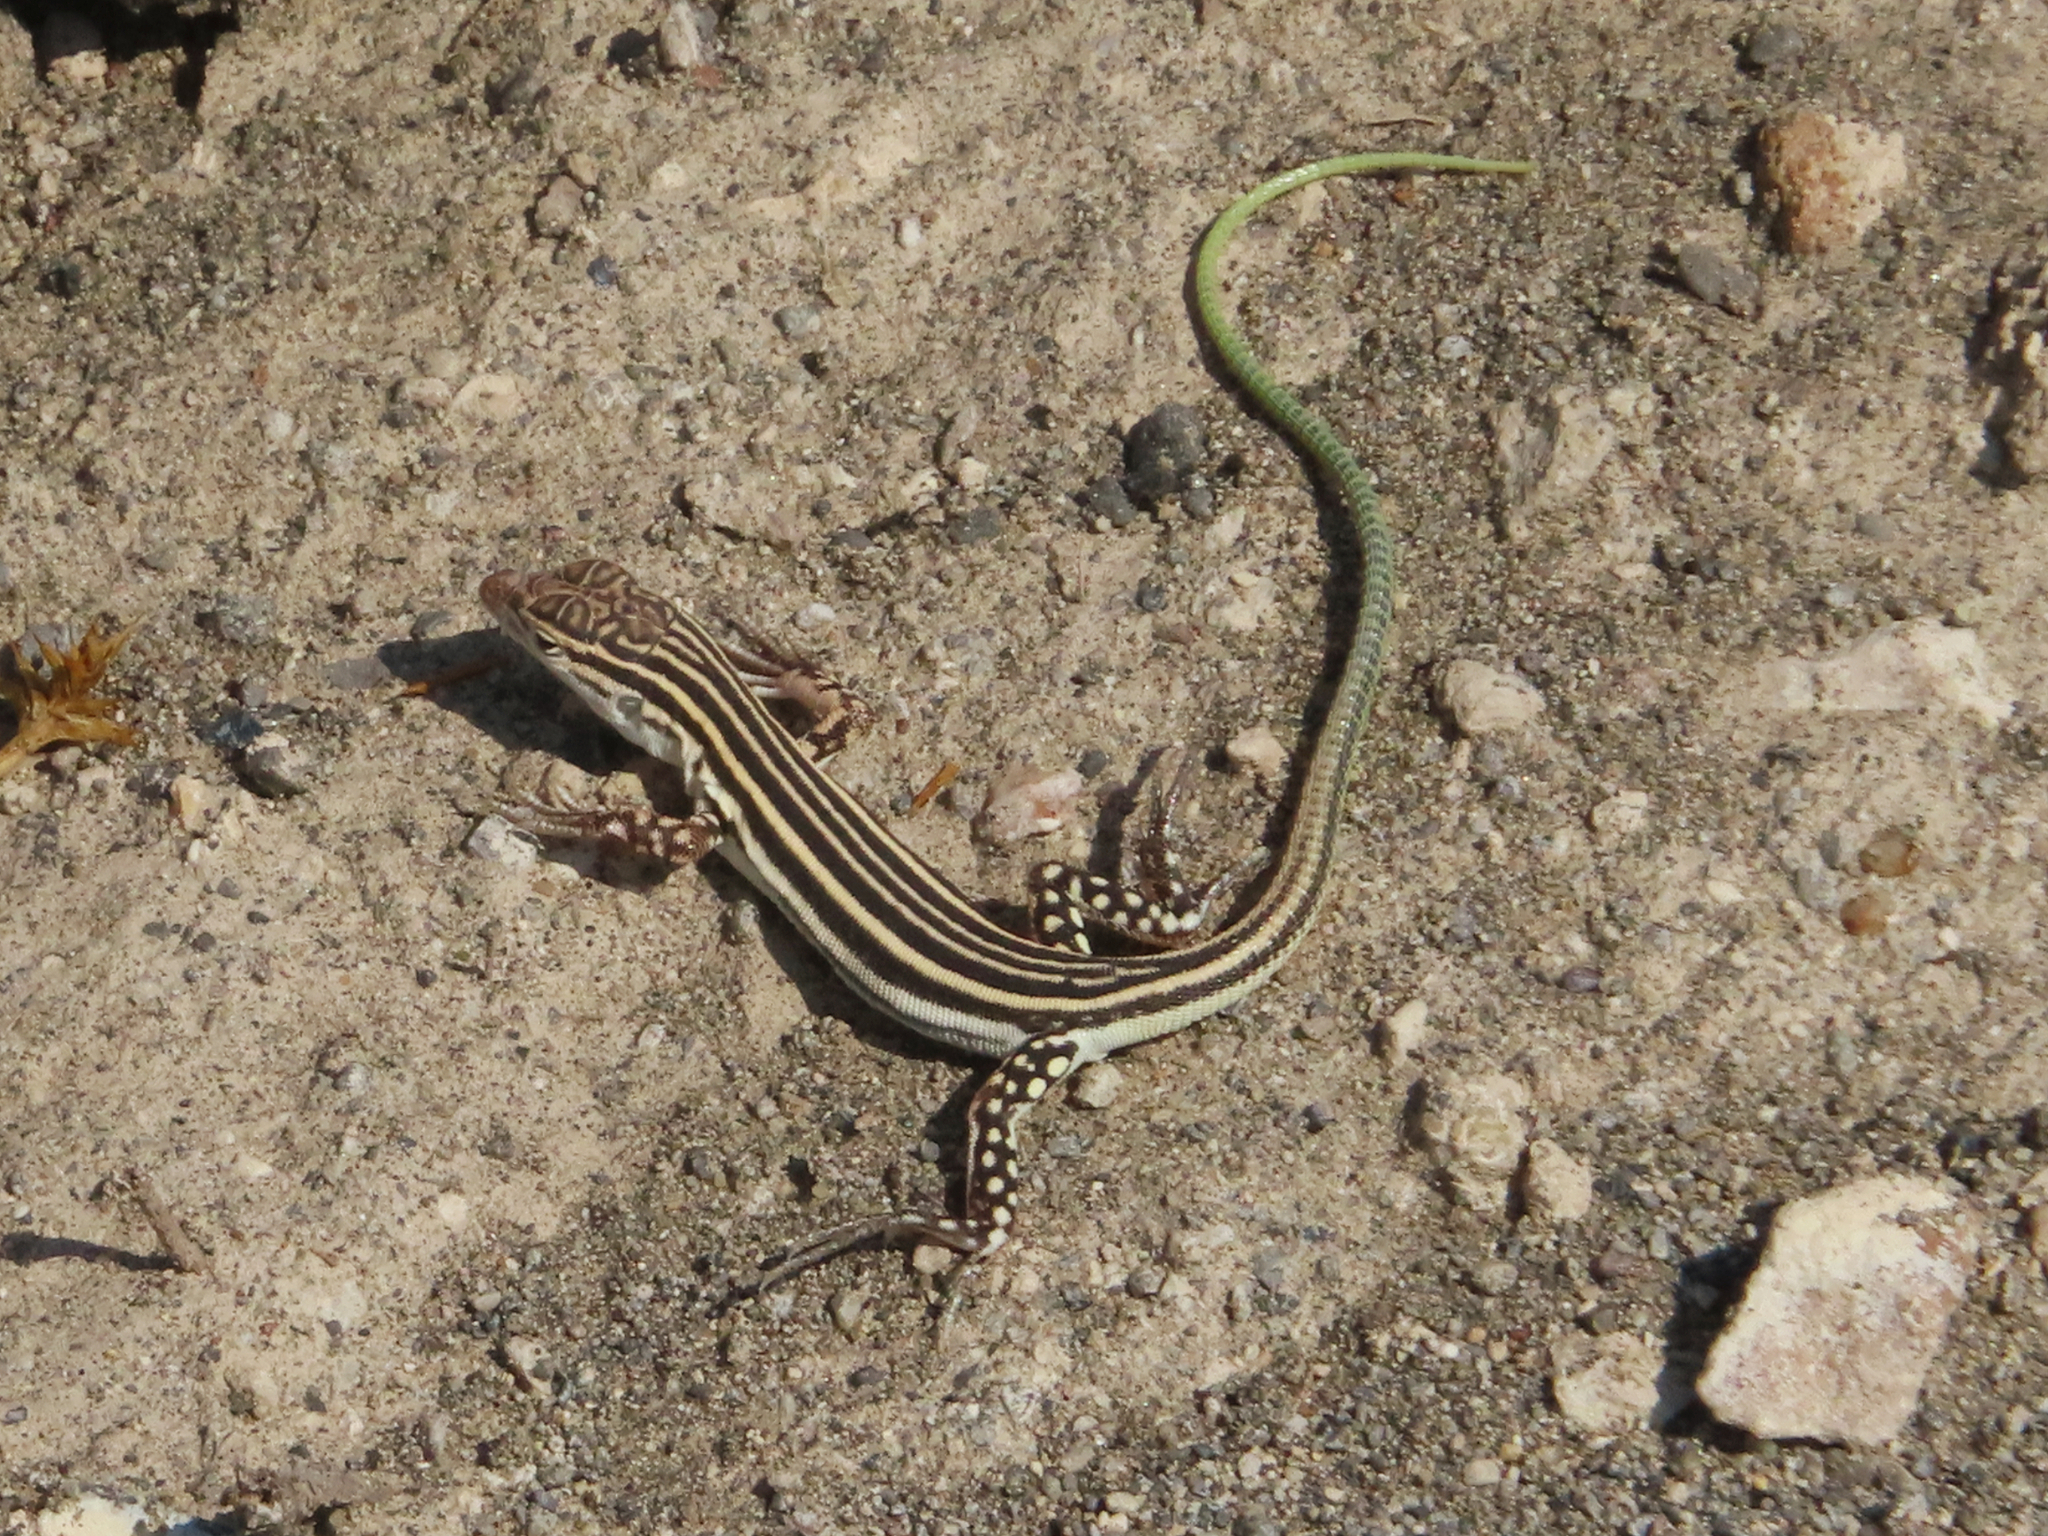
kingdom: Animalia
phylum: Chordata
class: Squamata
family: Lacertidae
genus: Eremias
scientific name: Eremias pleskei
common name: Pleske's racerunner
